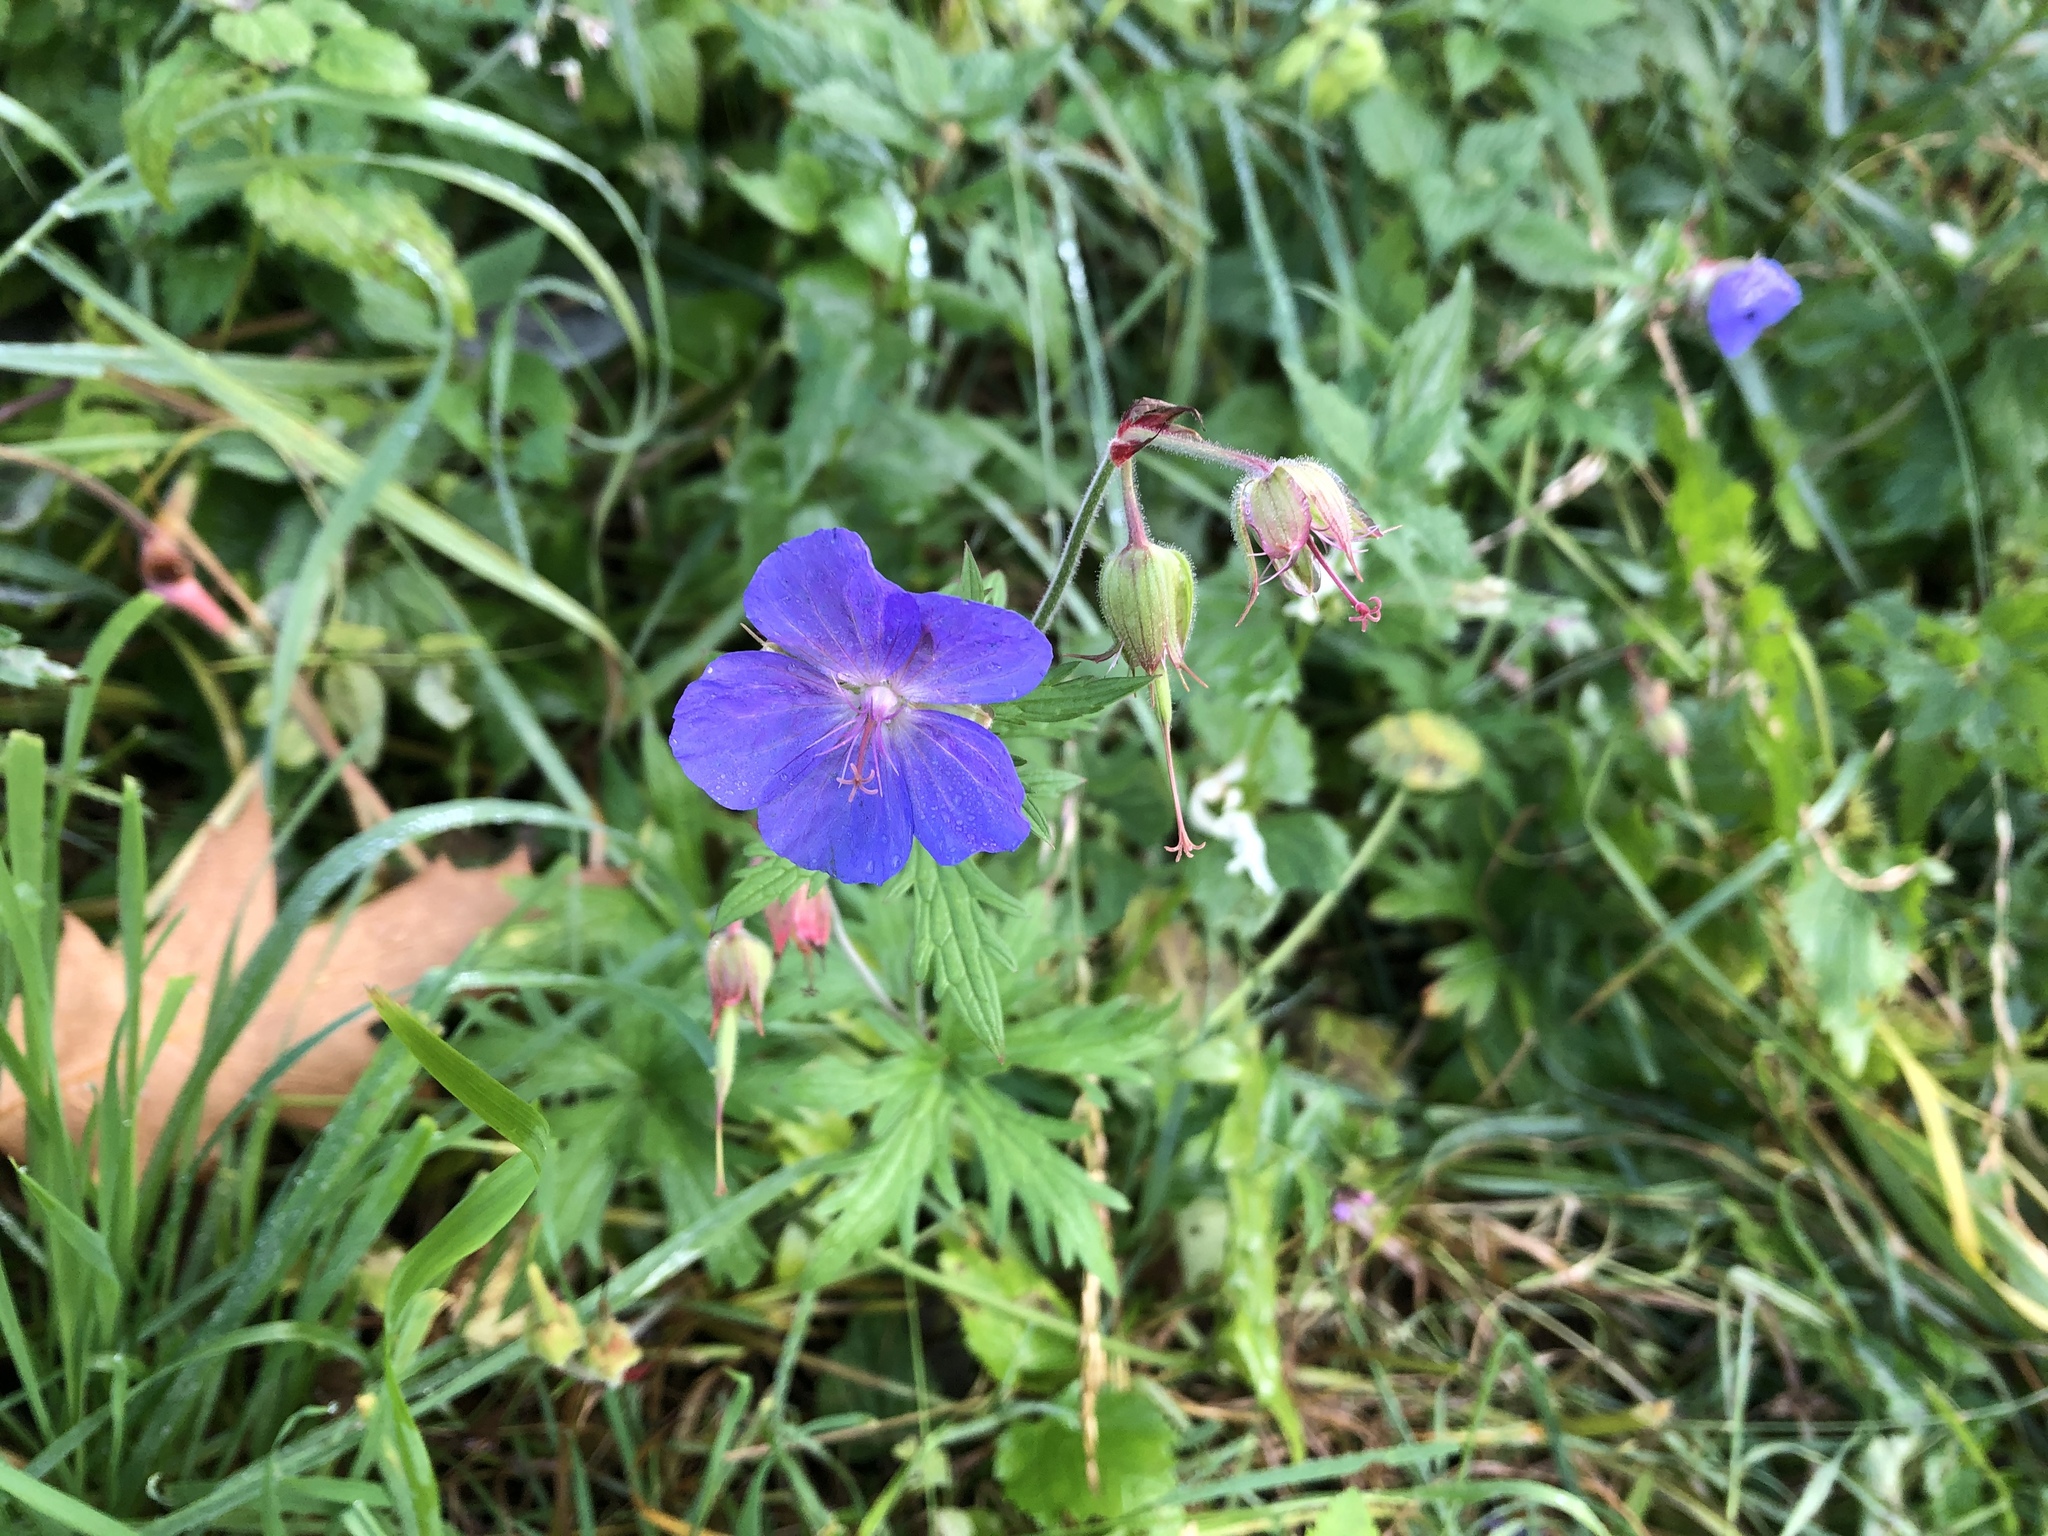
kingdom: Plantae
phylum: Tracheophyta
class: Magnoliopsida
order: Geraniales
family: Geraniaceae
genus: Geranium
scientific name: Geranium pratense
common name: Meadow crane's-bill
